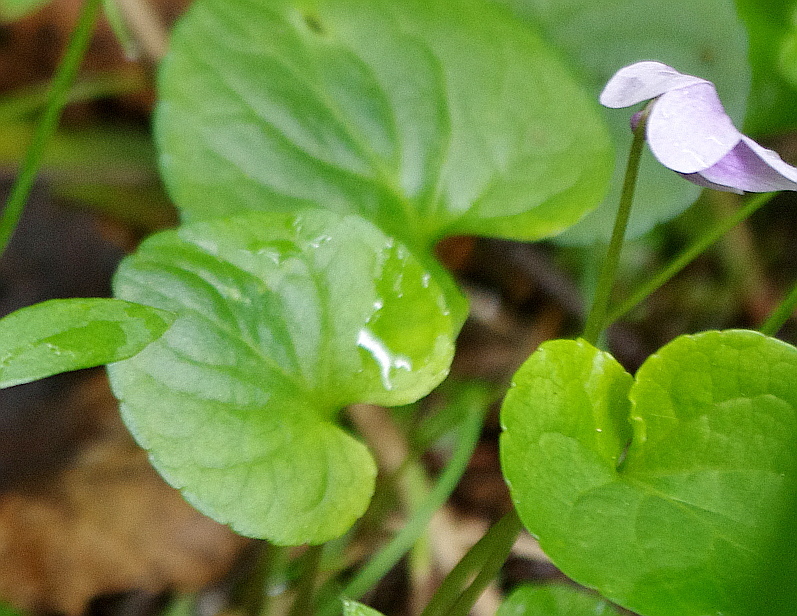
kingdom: Plantae
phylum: Tracheophyta
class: Magnoliopsida
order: Malpighiales
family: Violaceae
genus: Viola
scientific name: Viola palustris
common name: Marsh violet
